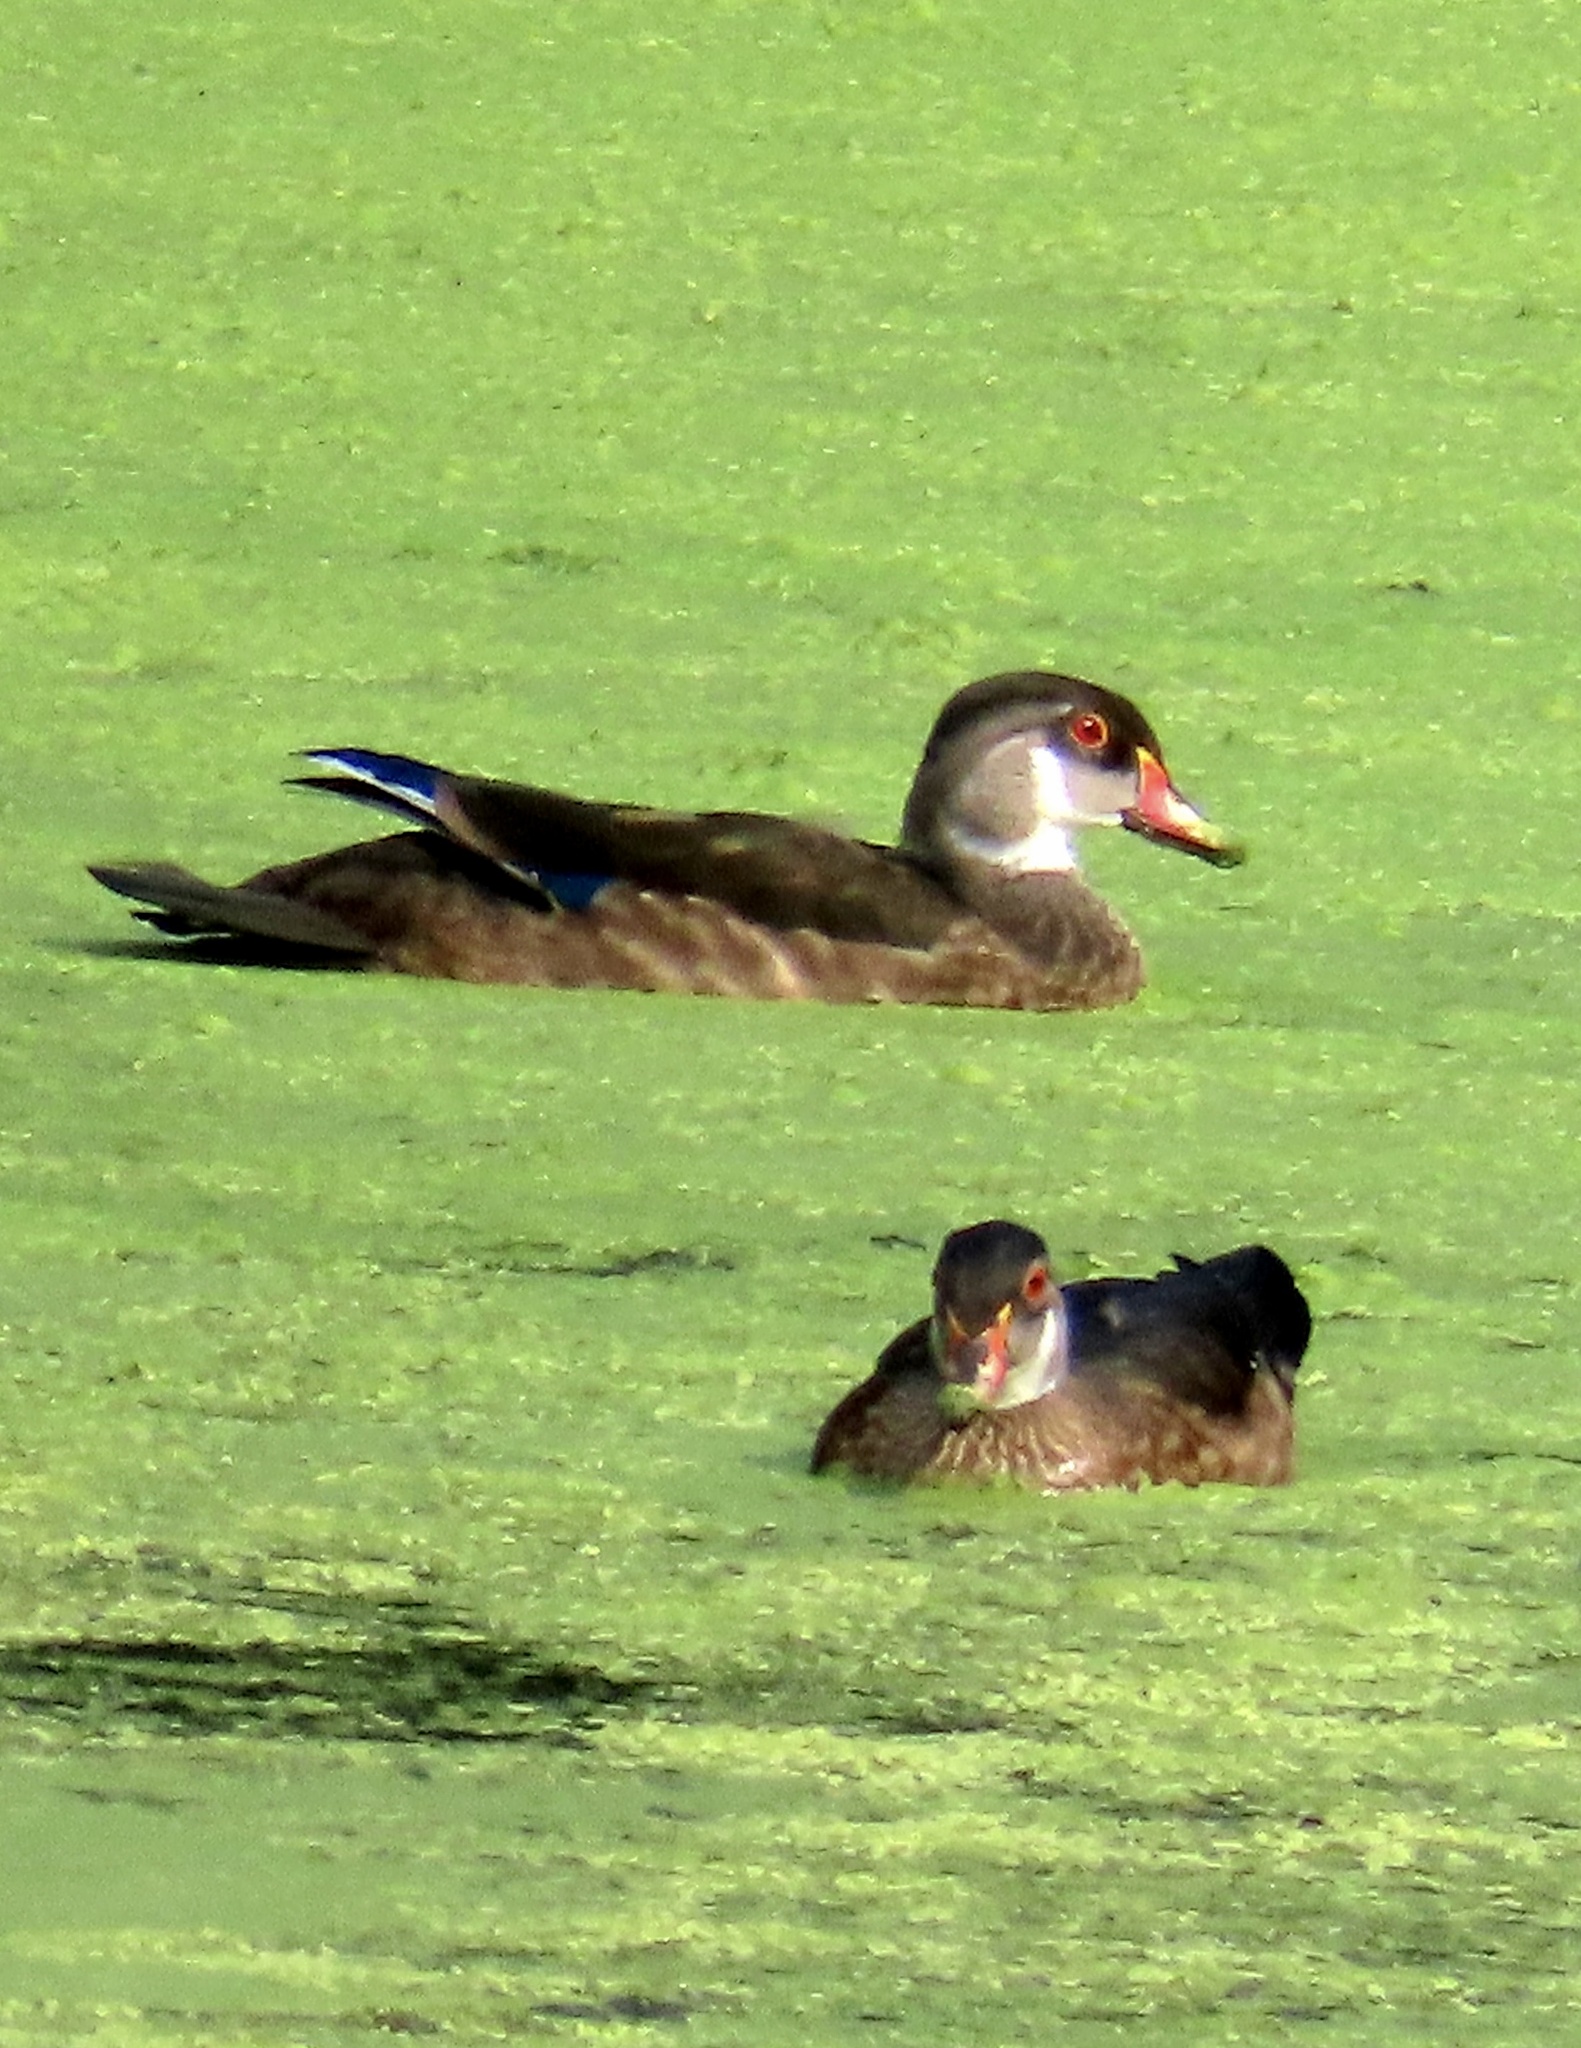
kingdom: Animalia
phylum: Chordata
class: Aves
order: Anseriformes
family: Anatidae
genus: Aix
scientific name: Aix sponsa
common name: Wood duck
